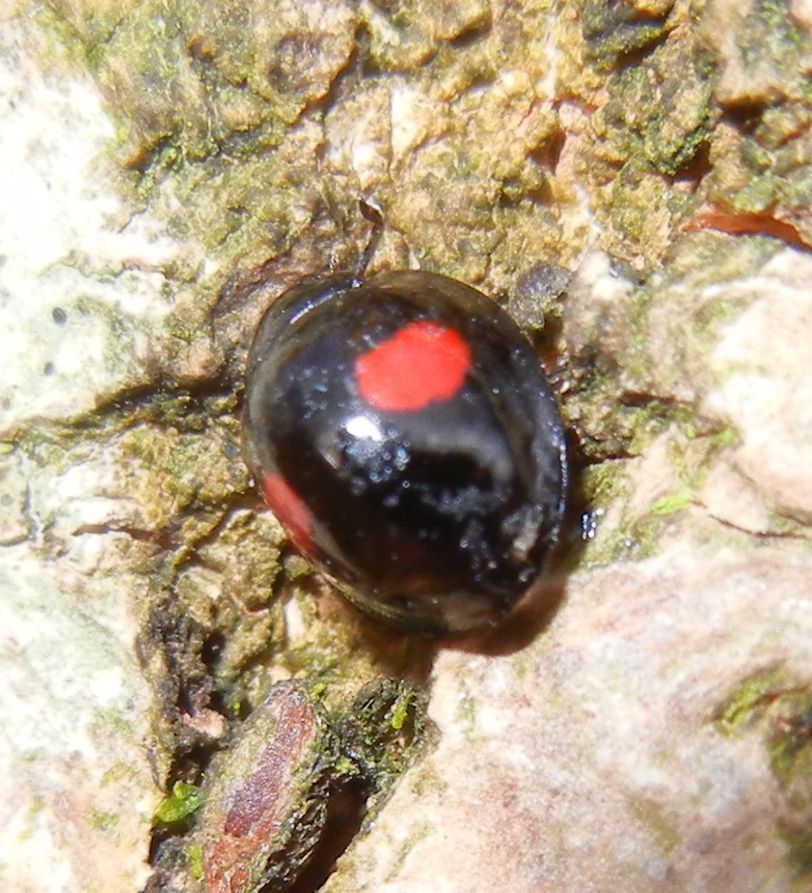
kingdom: Animalia
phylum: Arthropoda
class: Insecta
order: Coleoptera
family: Coccinellidae
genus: Chilocorus
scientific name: Chilocorus renipustulatus
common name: Kidney-spot ladybird
